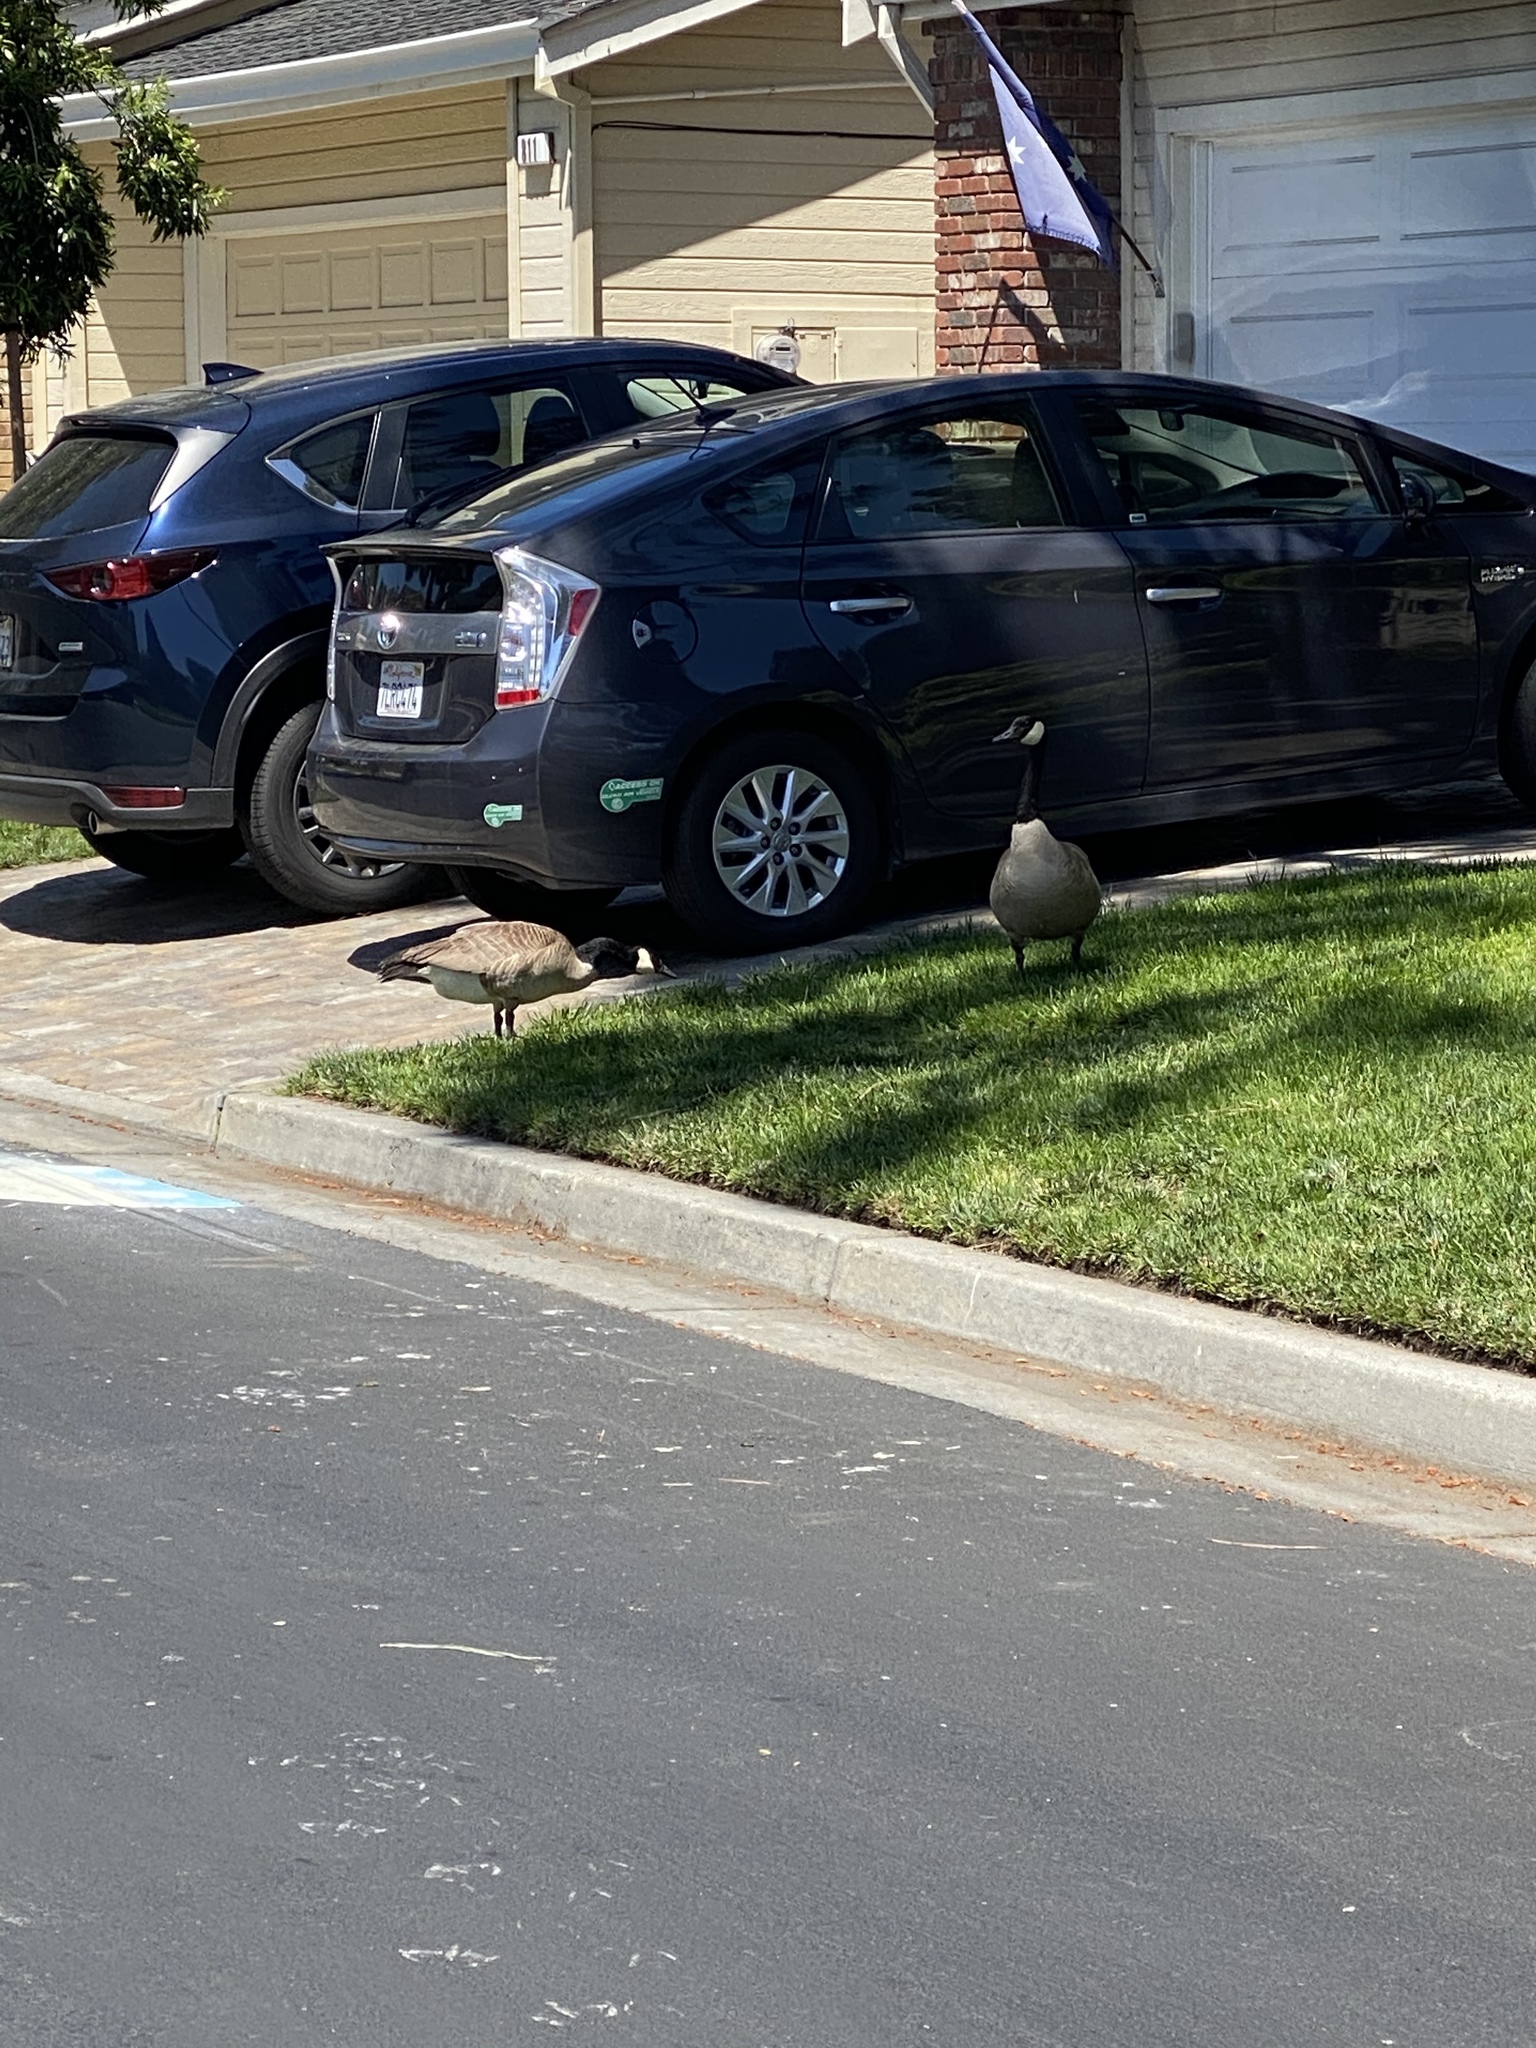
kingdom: Animalia
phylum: Chordata
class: Aves
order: Anseriformes
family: Anatidae
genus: Branta
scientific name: Branta canadensis
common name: Canada goose
